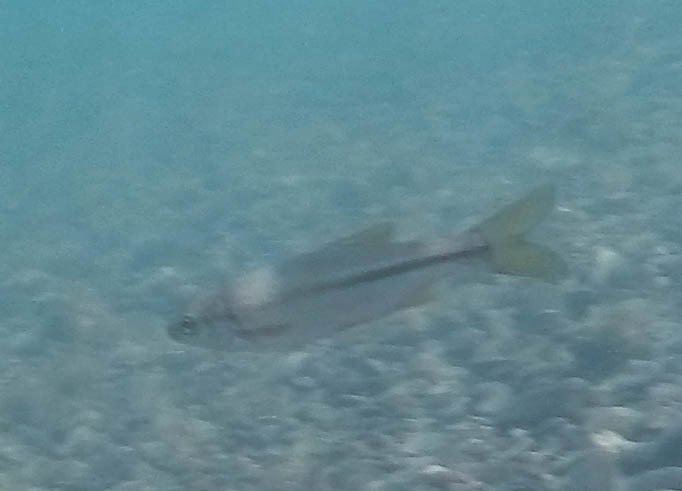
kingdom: Animalia
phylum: Chordata
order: Cypriniformes
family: Cyprinidae
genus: Mylopharodon
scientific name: Mylopharodon conocephalus
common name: Hardhead
